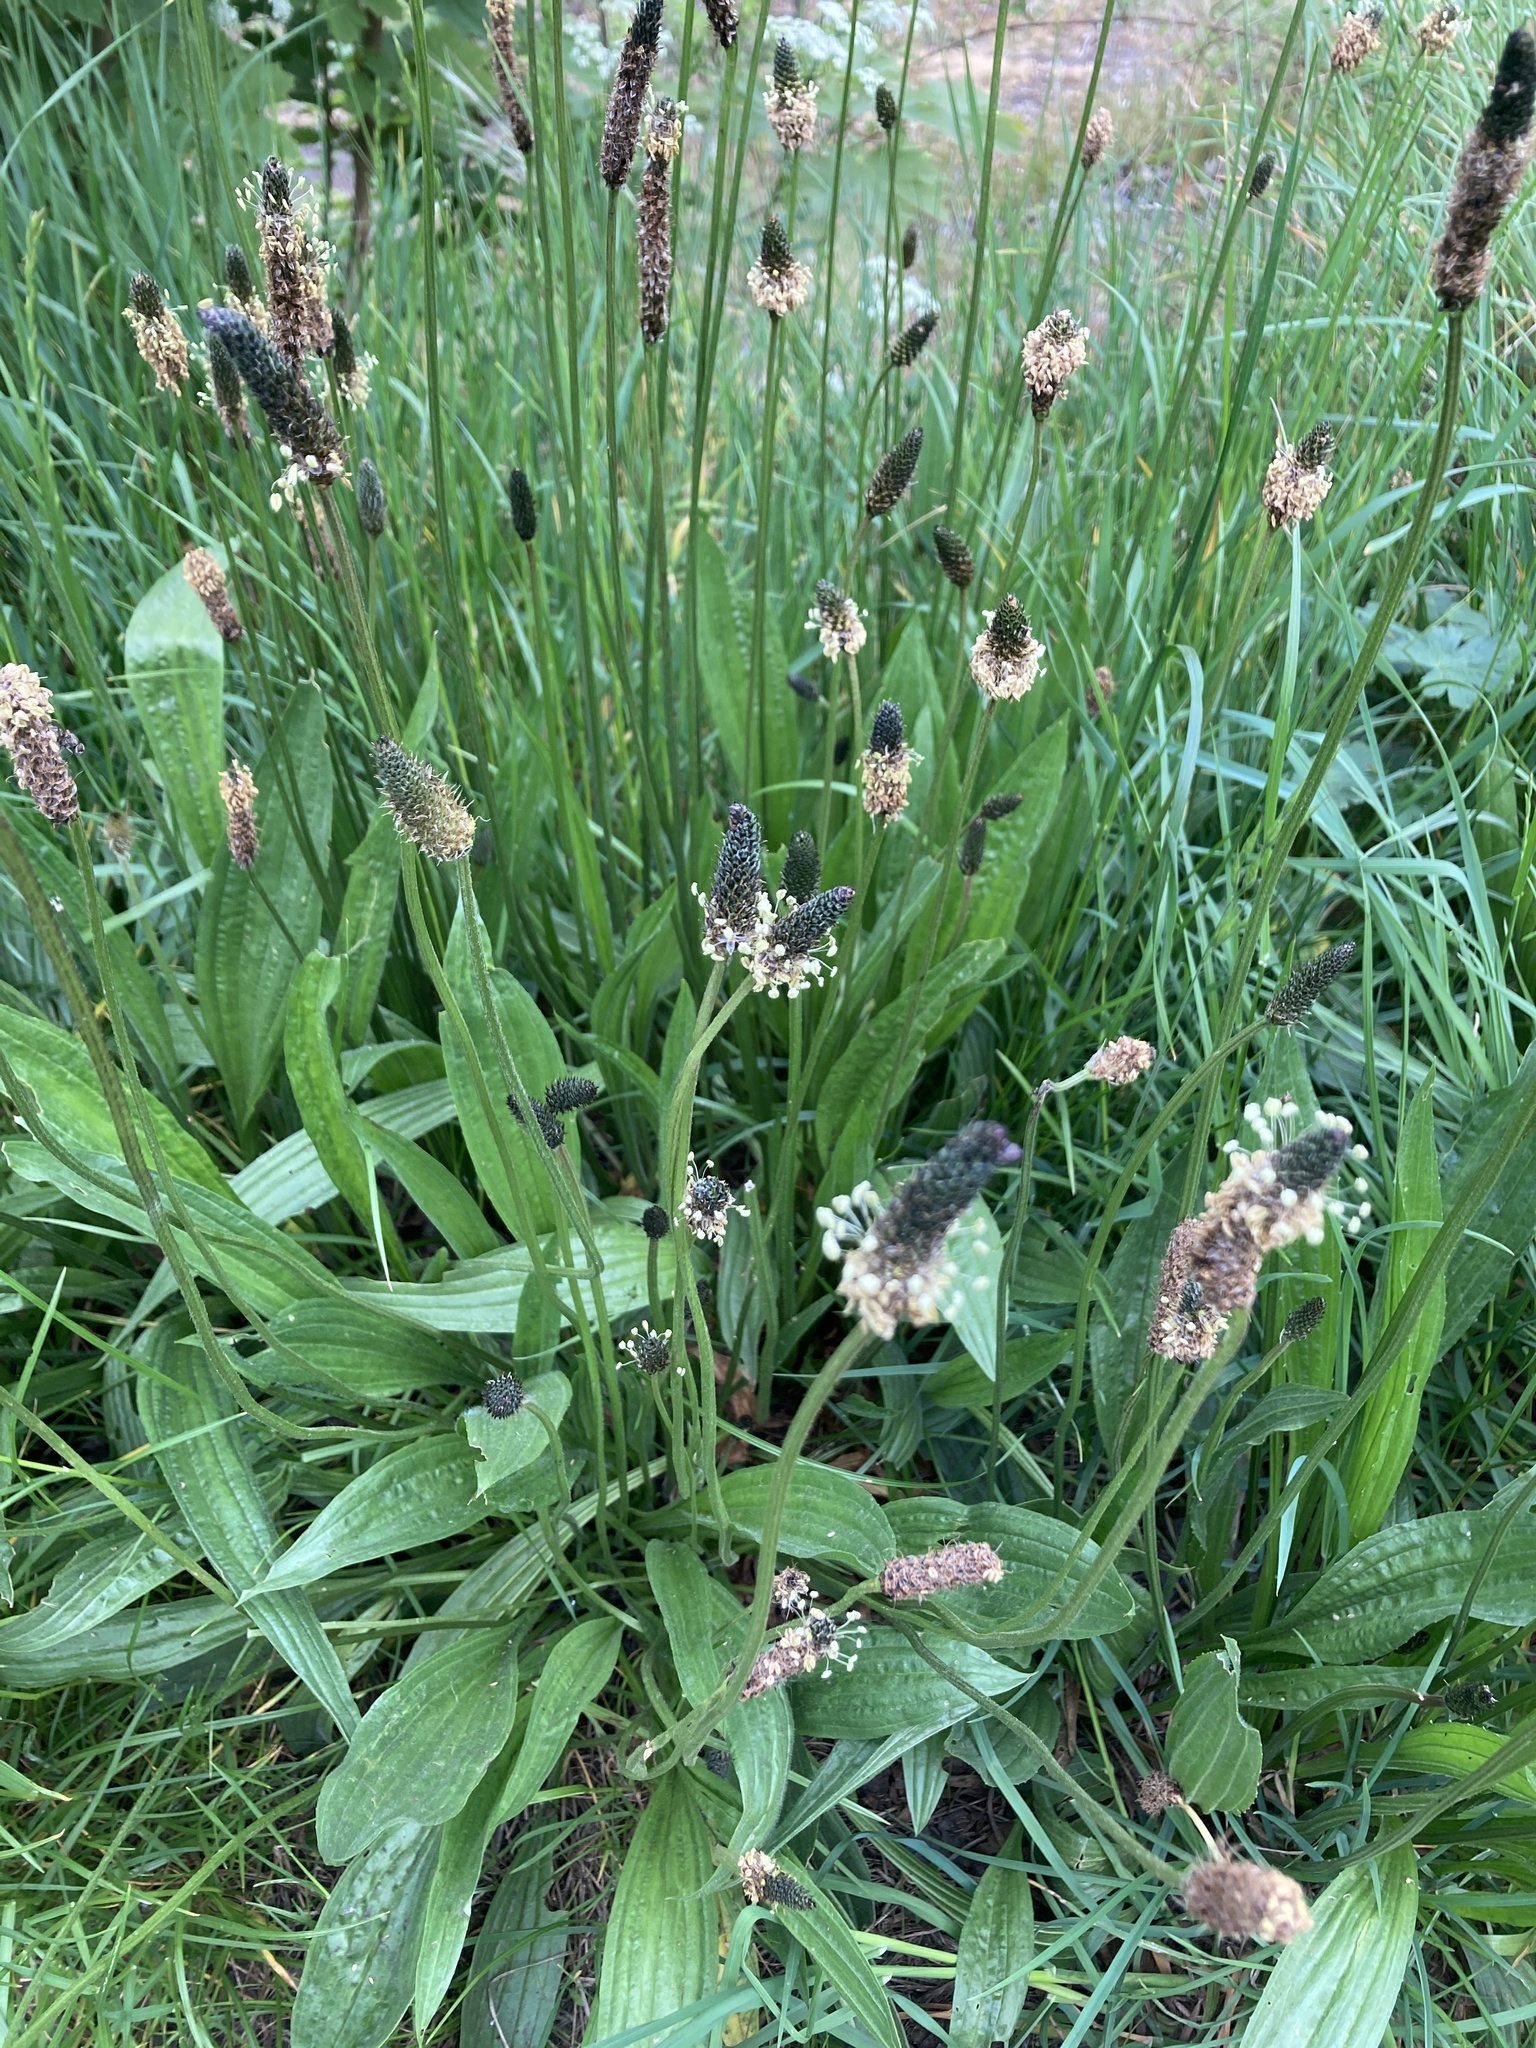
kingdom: Plantae
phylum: Tracheophyta
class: Magnoliopsida
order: Lamiales
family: Plantaginaceae
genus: Plantago
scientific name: Plantago lanceolata
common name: Ribwort plantain
